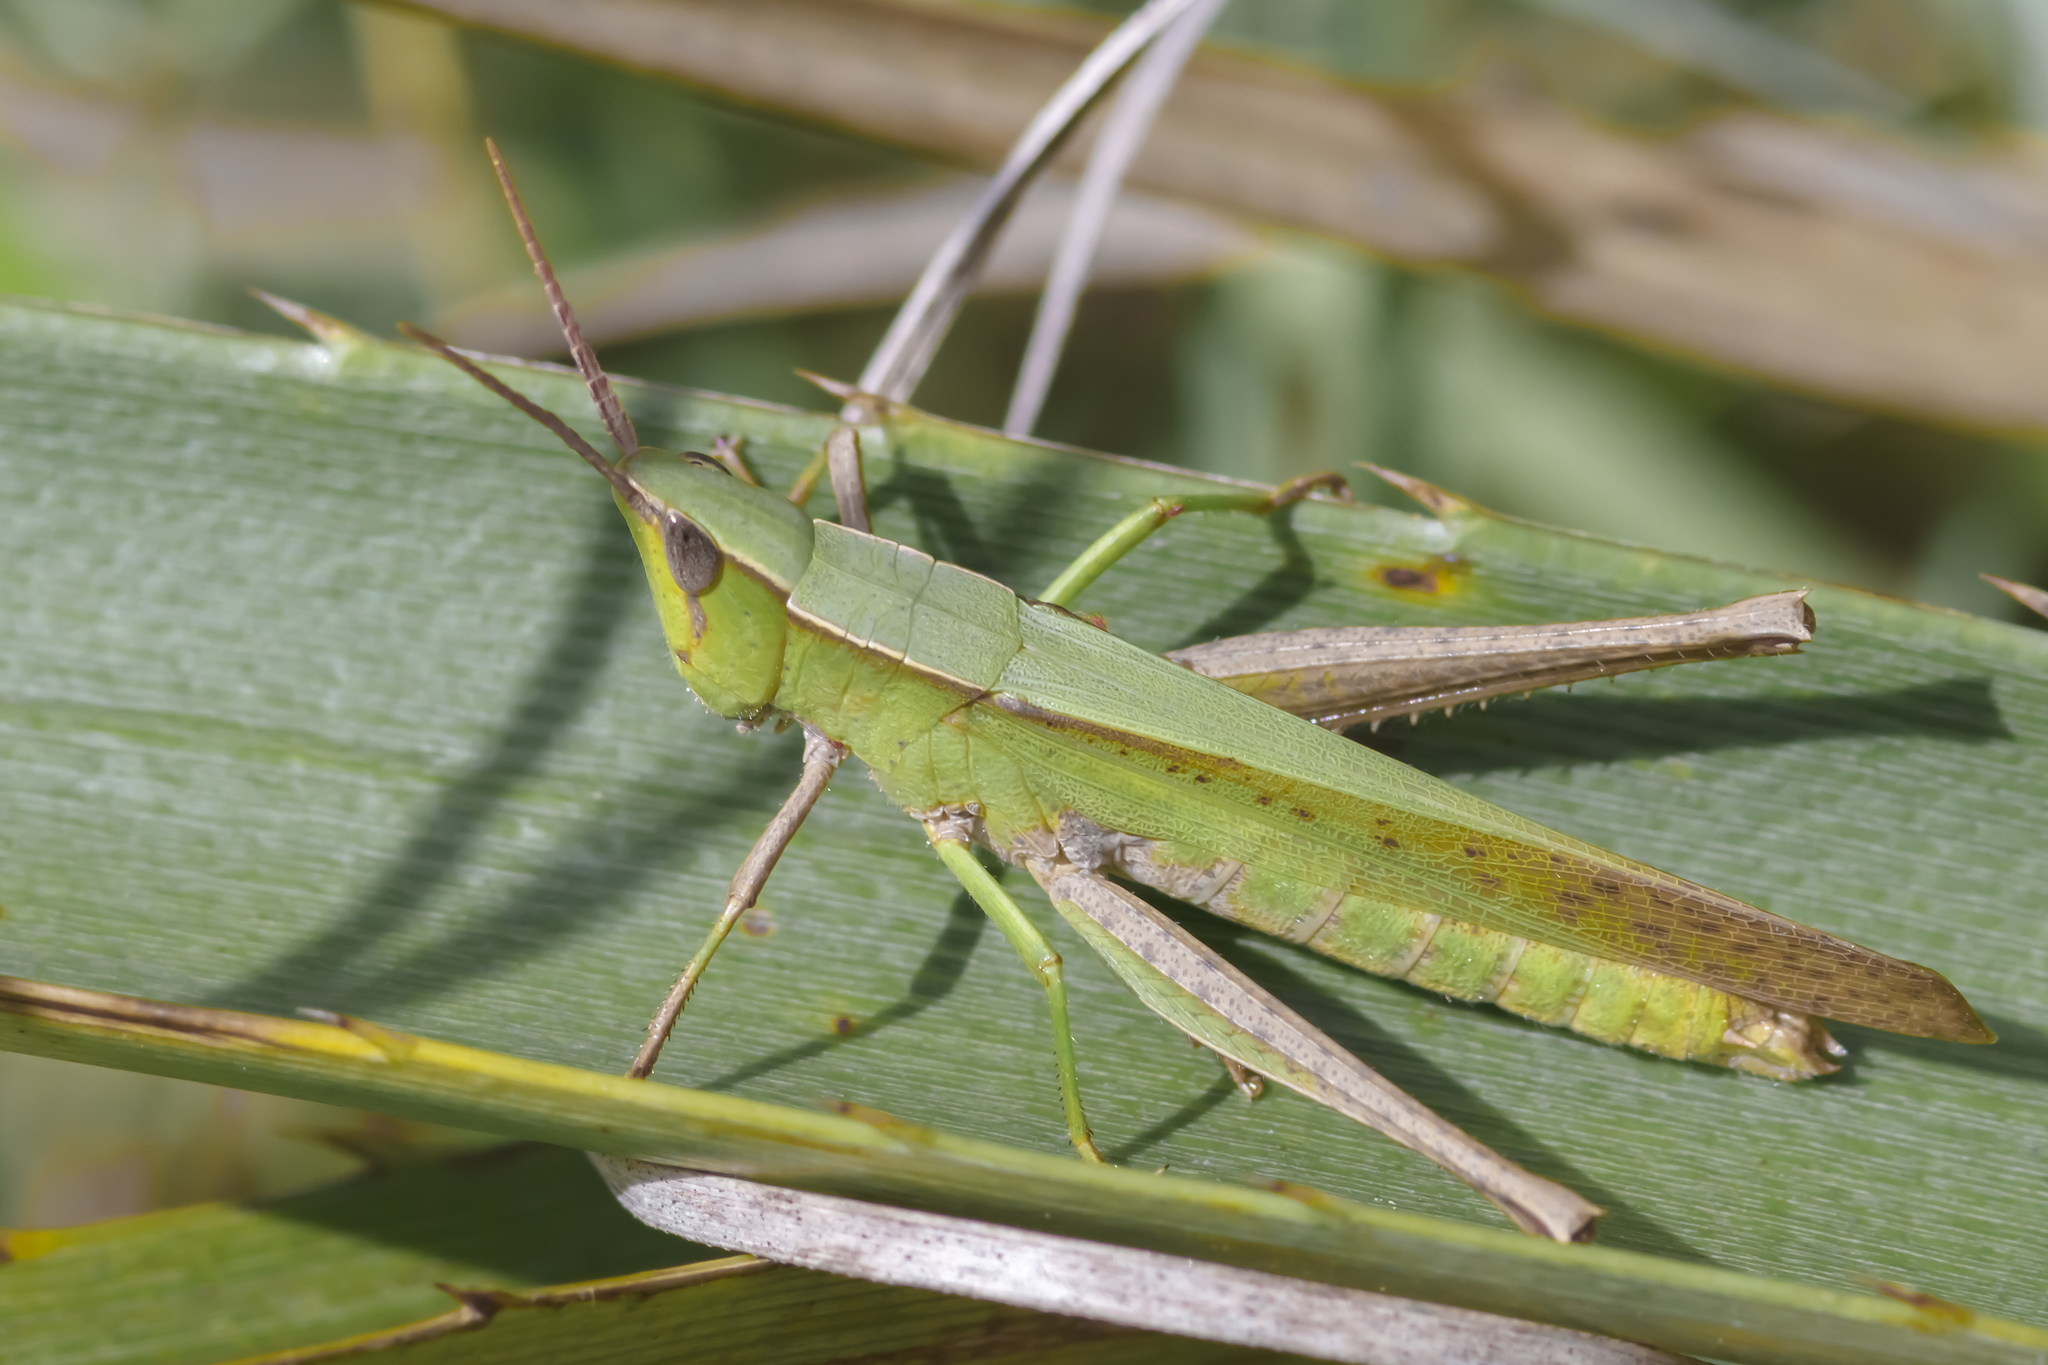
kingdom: Animalia
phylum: Arthropoda
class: Insecta
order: Orthoptera
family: Acrididae
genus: Metaleptea
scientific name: Metaleptea adspersa
